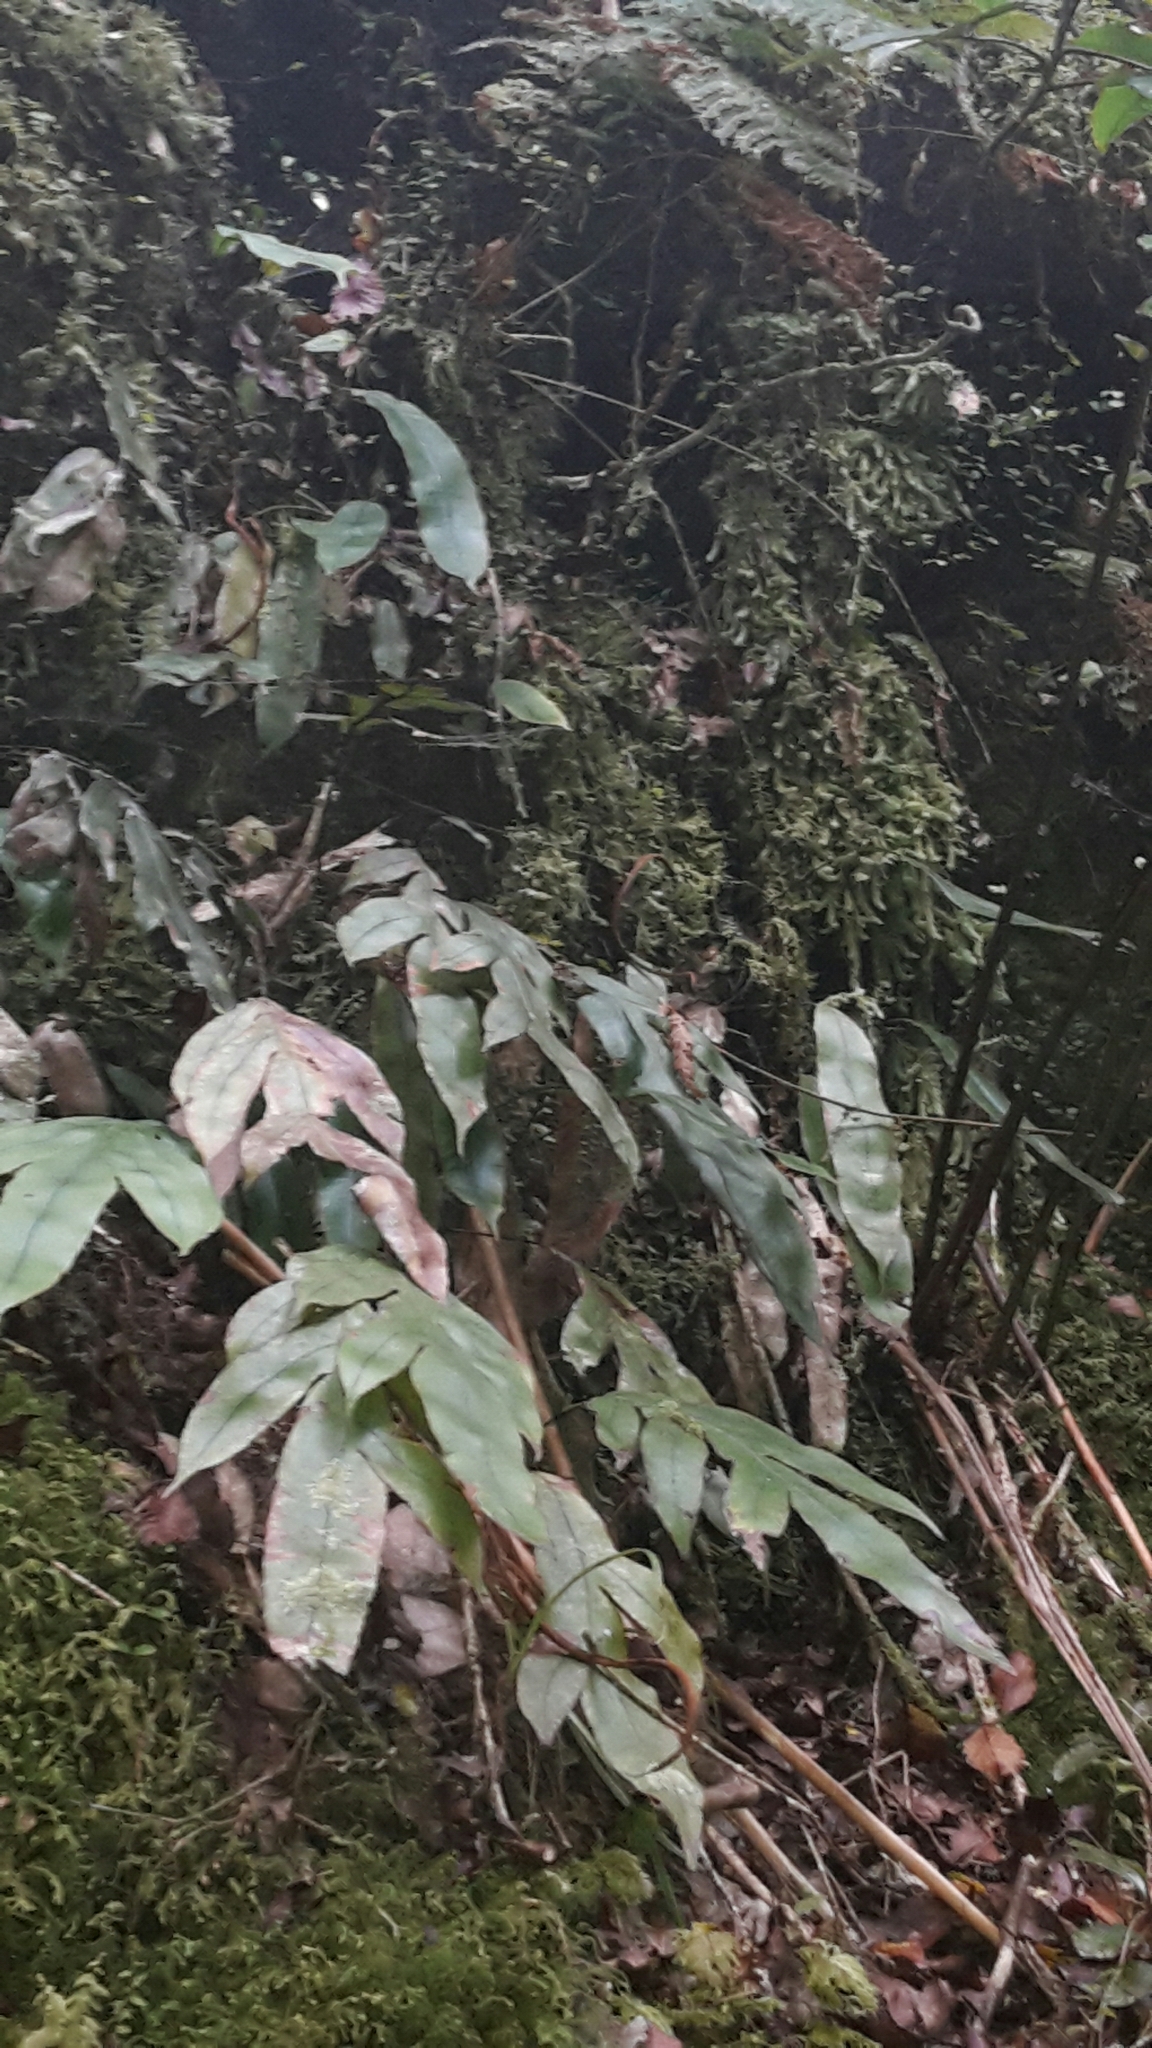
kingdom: Plantae
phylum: Tracheophyta
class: Polypodiopsida
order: Polypodiales
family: Blechnaceae
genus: Austroblechnum
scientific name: Austroblechnum colensoi
